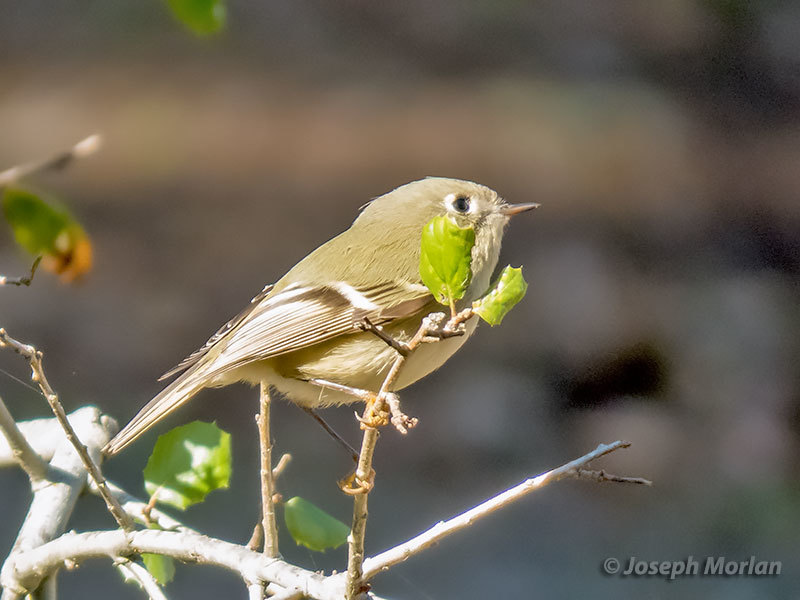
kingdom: Animalia
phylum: Chordata
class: Aves
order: Passeriformes
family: Regulidae
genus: Regulus
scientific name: Regulus calendula
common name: Ruby-crowned kinglet
